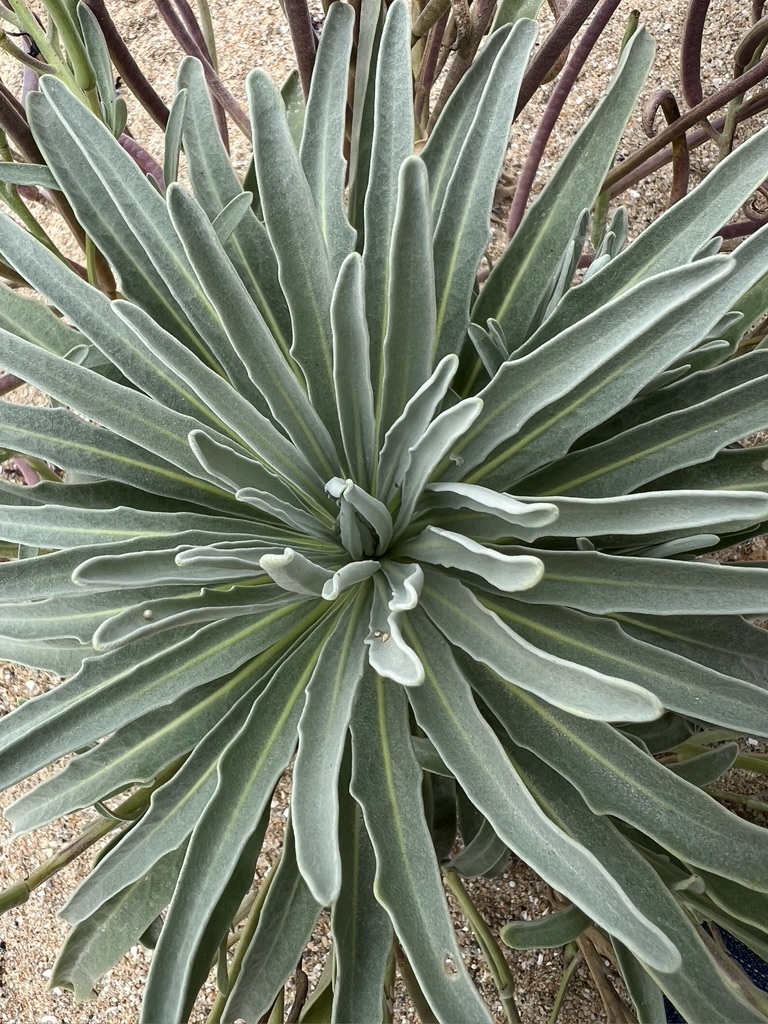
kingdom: Plantae
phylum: Tracheophyta
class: Magnoliopsida
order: Brassicales
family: Brassicaceae
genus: Matthiola
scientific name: Matthiola incana
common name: Hoary stock
